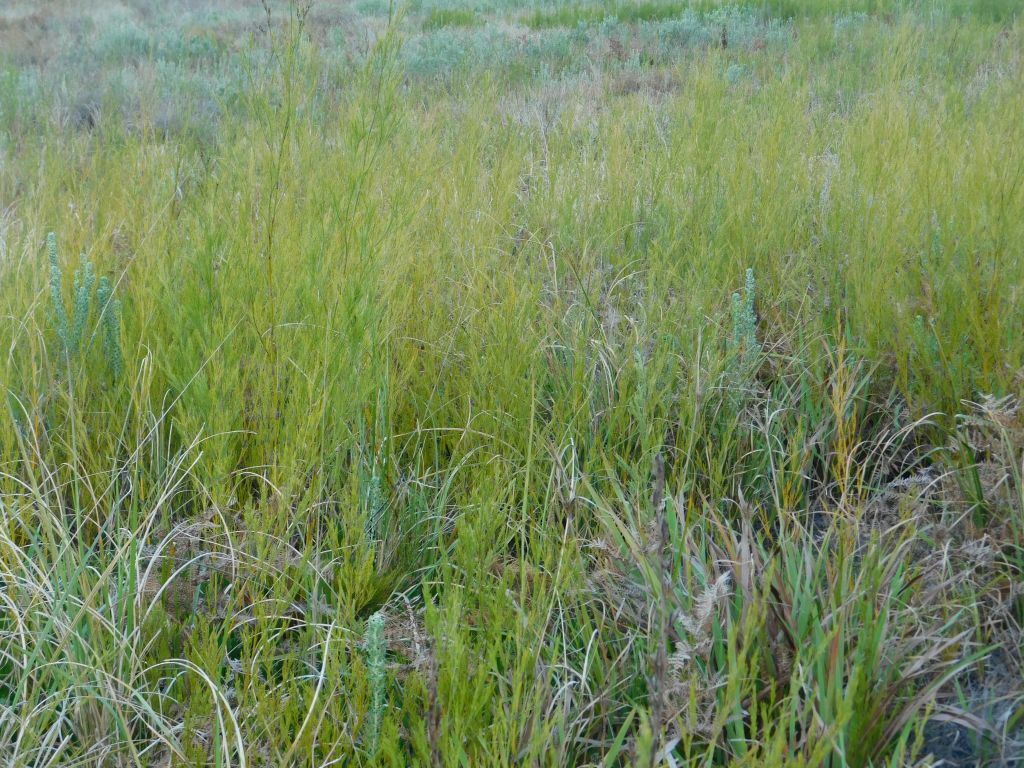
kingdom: Plantae
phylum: Tracheophyta
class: Liliopsida
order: Poales
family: Restionaceae
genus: Restio
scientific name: Restio paniculatus
